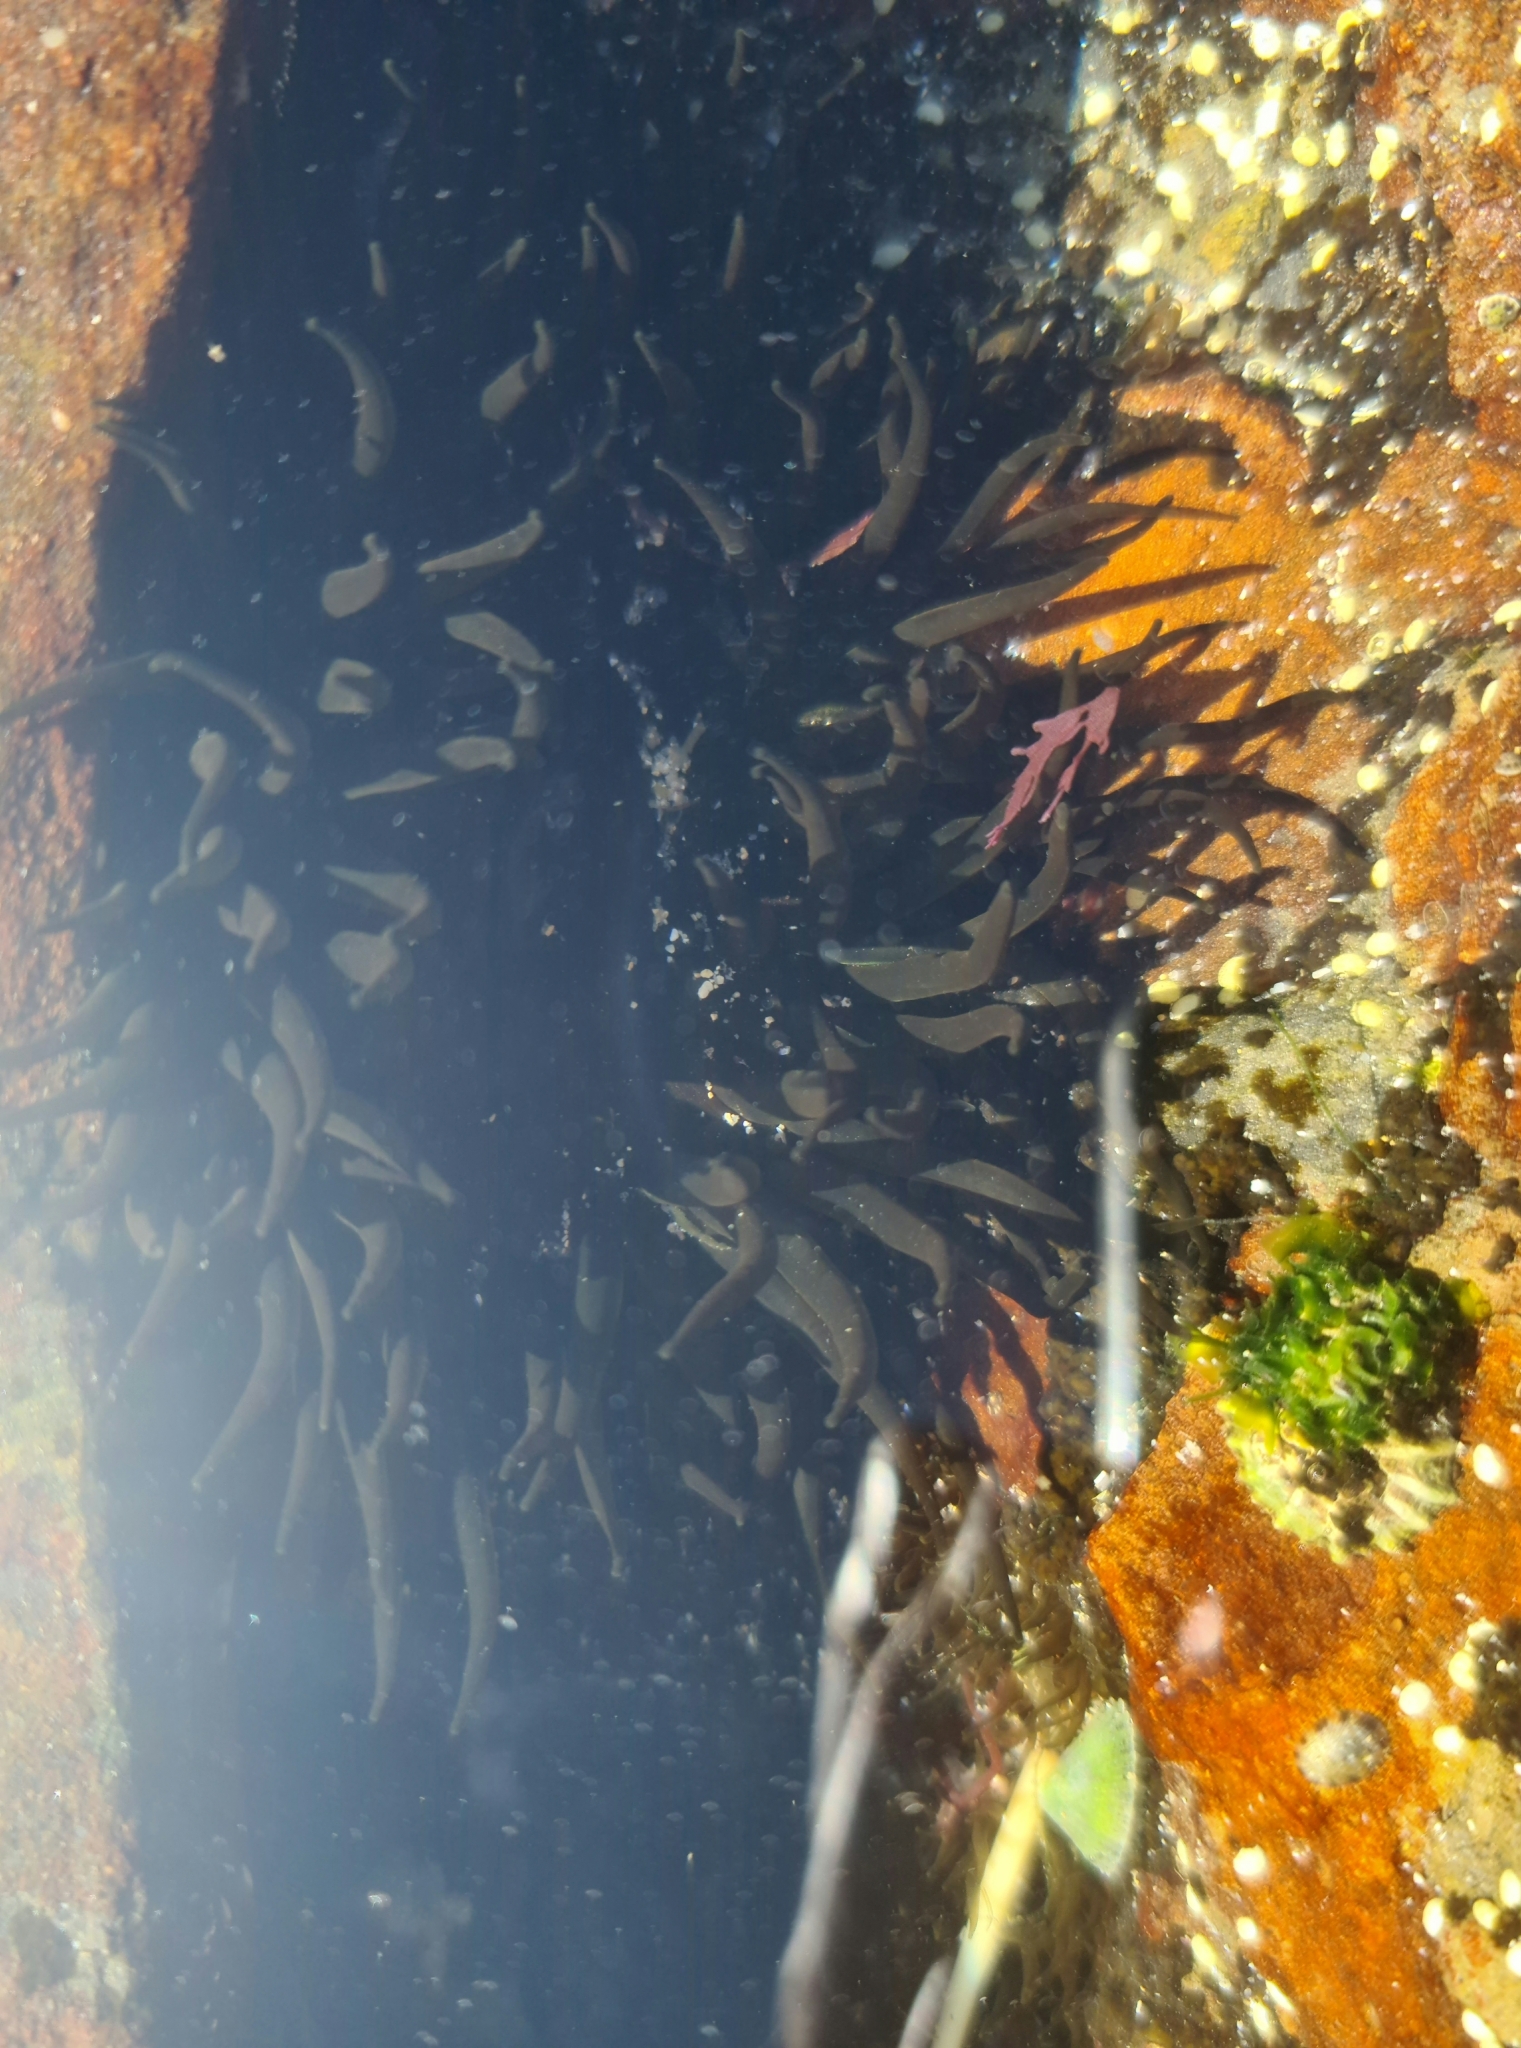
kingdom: Animalia
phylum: Cnidaria
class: Anthozoa
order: Actiniaria
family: Actiniidae
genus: Aulactinia
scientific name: Aulactinia veratra
